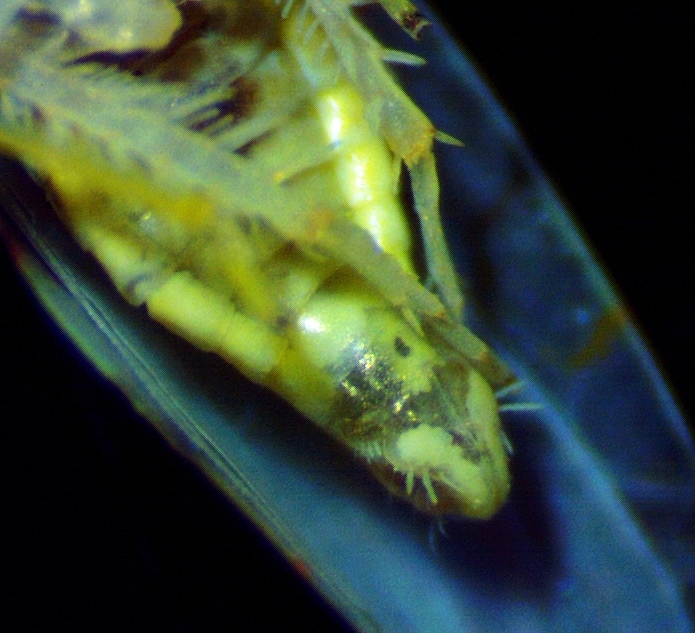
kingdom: Animalia
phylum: Arthropoda
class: Insecta
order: Hemiptera
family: Cicadellidae
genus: Hymetta
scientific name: Hymetta anthisma
